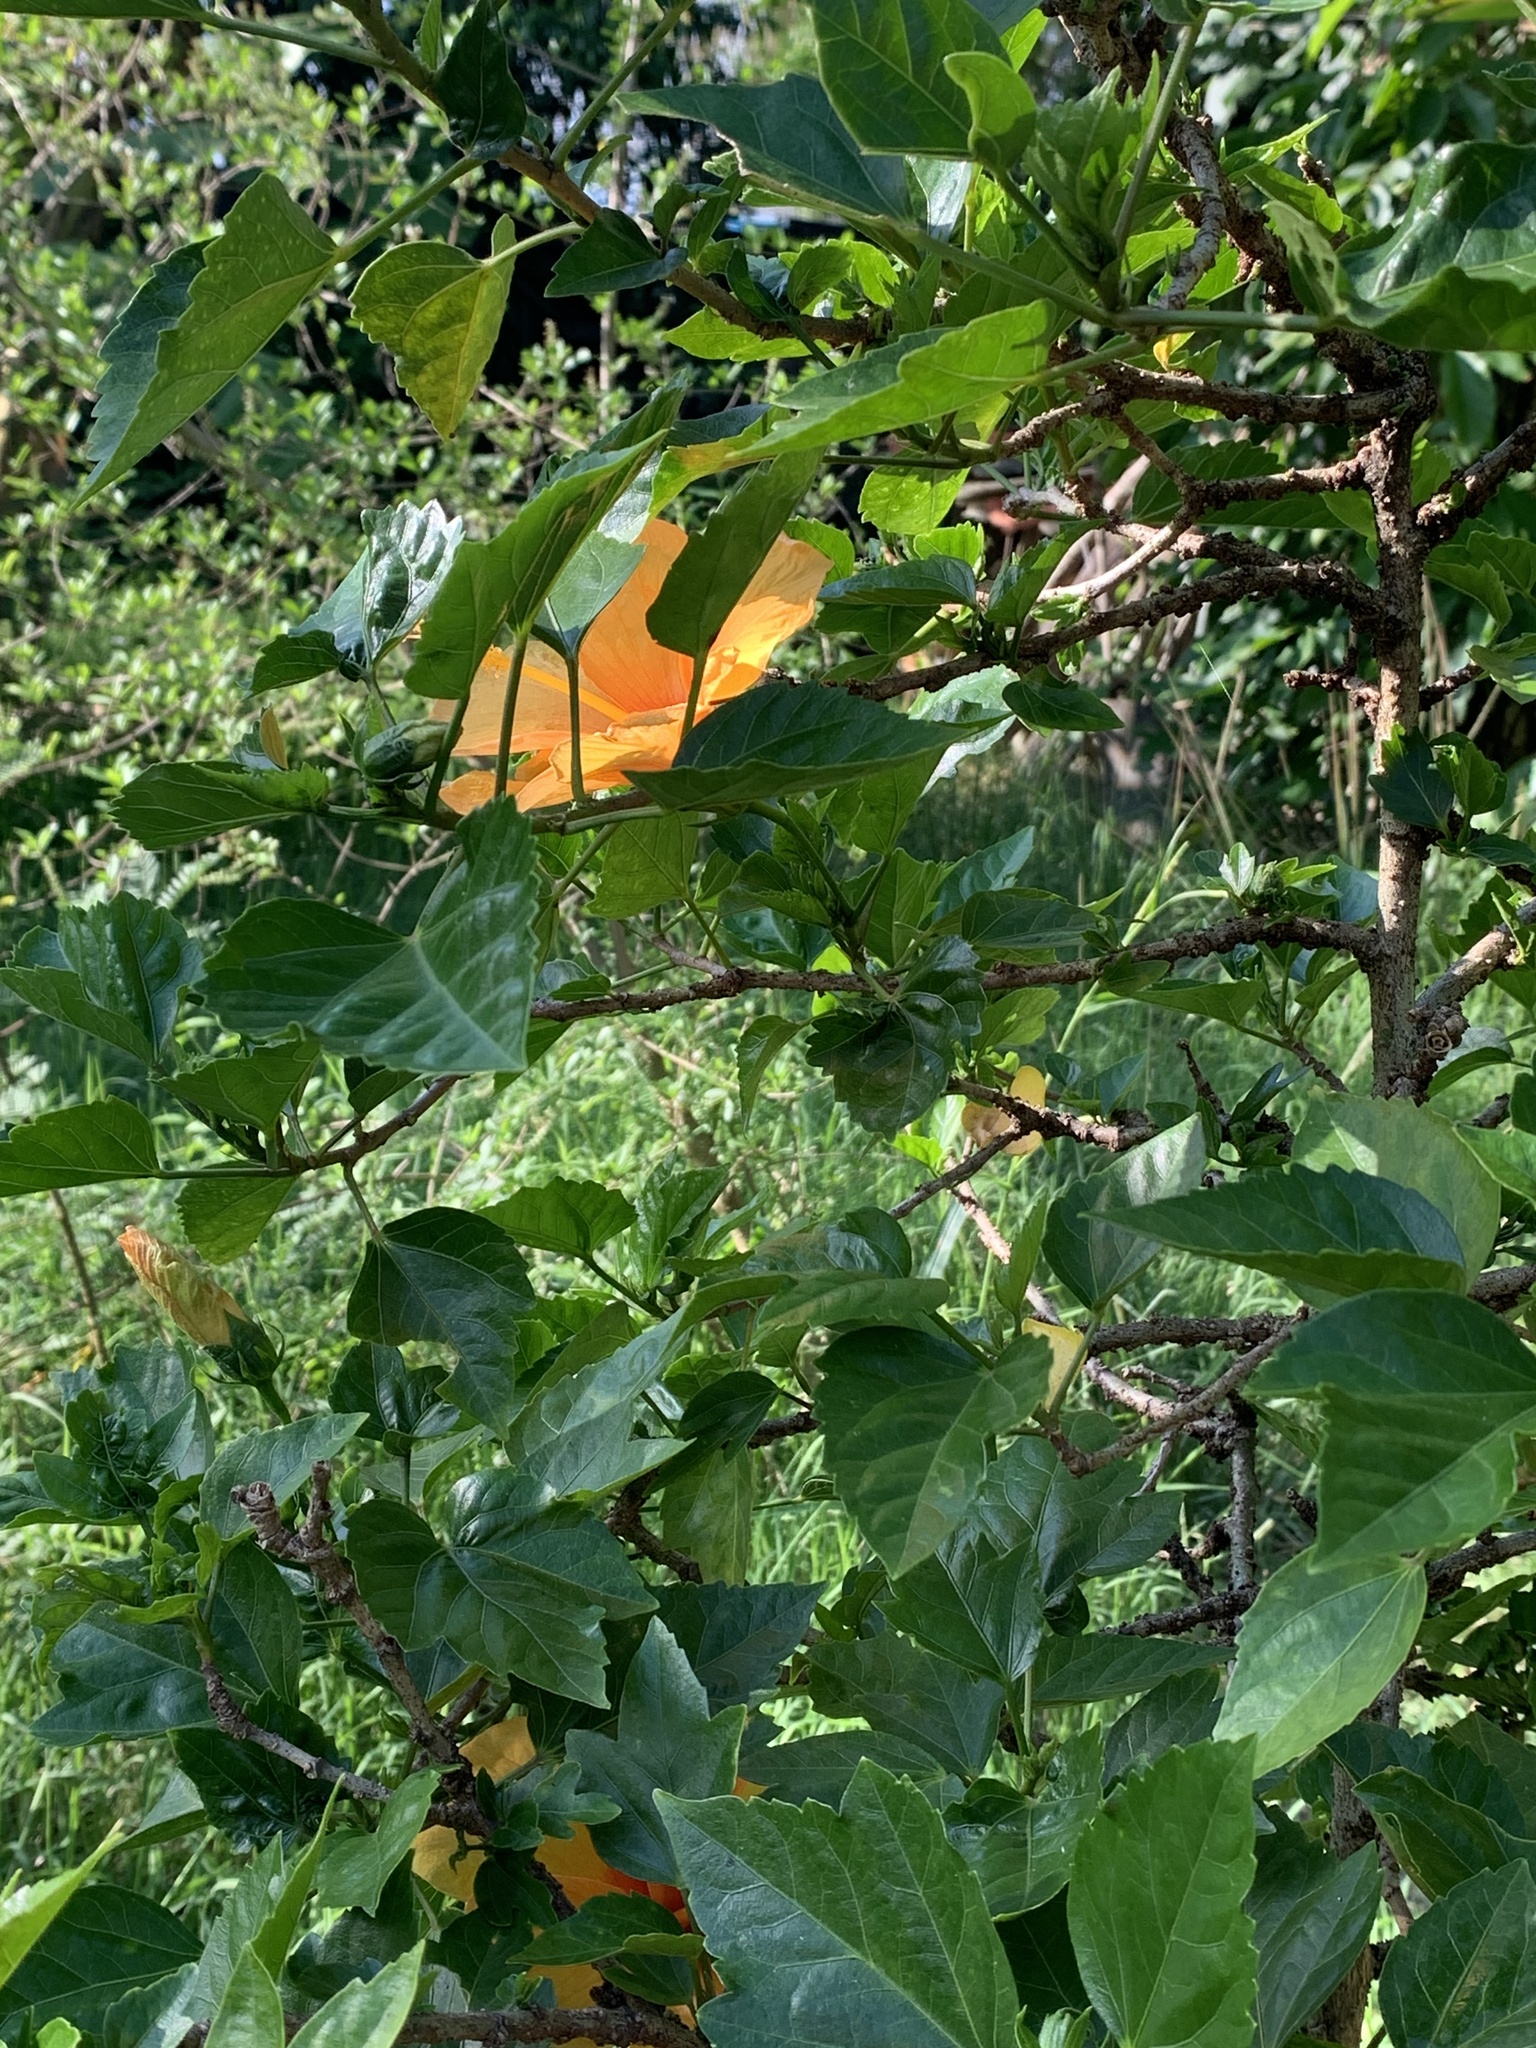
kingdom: Plantae
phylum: Tracheophyta
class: Magnoliopsida
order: Malvales
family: Malvaceae
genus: Hibiscus
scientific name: Hibiscus rosa-sinensis
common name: Hibiscus
